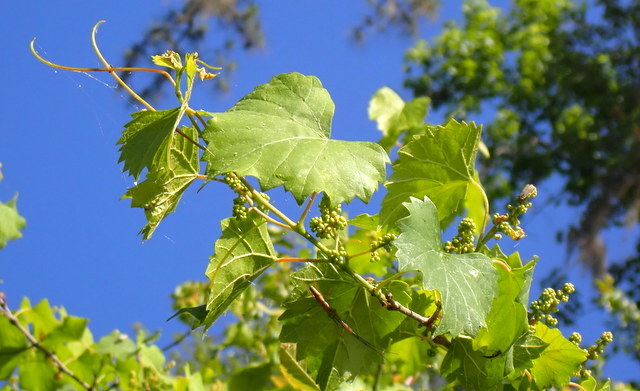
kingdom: Plantae
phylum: Tracheophyta
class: Magnoliopsida
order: Vitales
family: Vitaceae
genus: Vitis
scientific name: Vitis rotundifolia
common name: Muscadine grape
